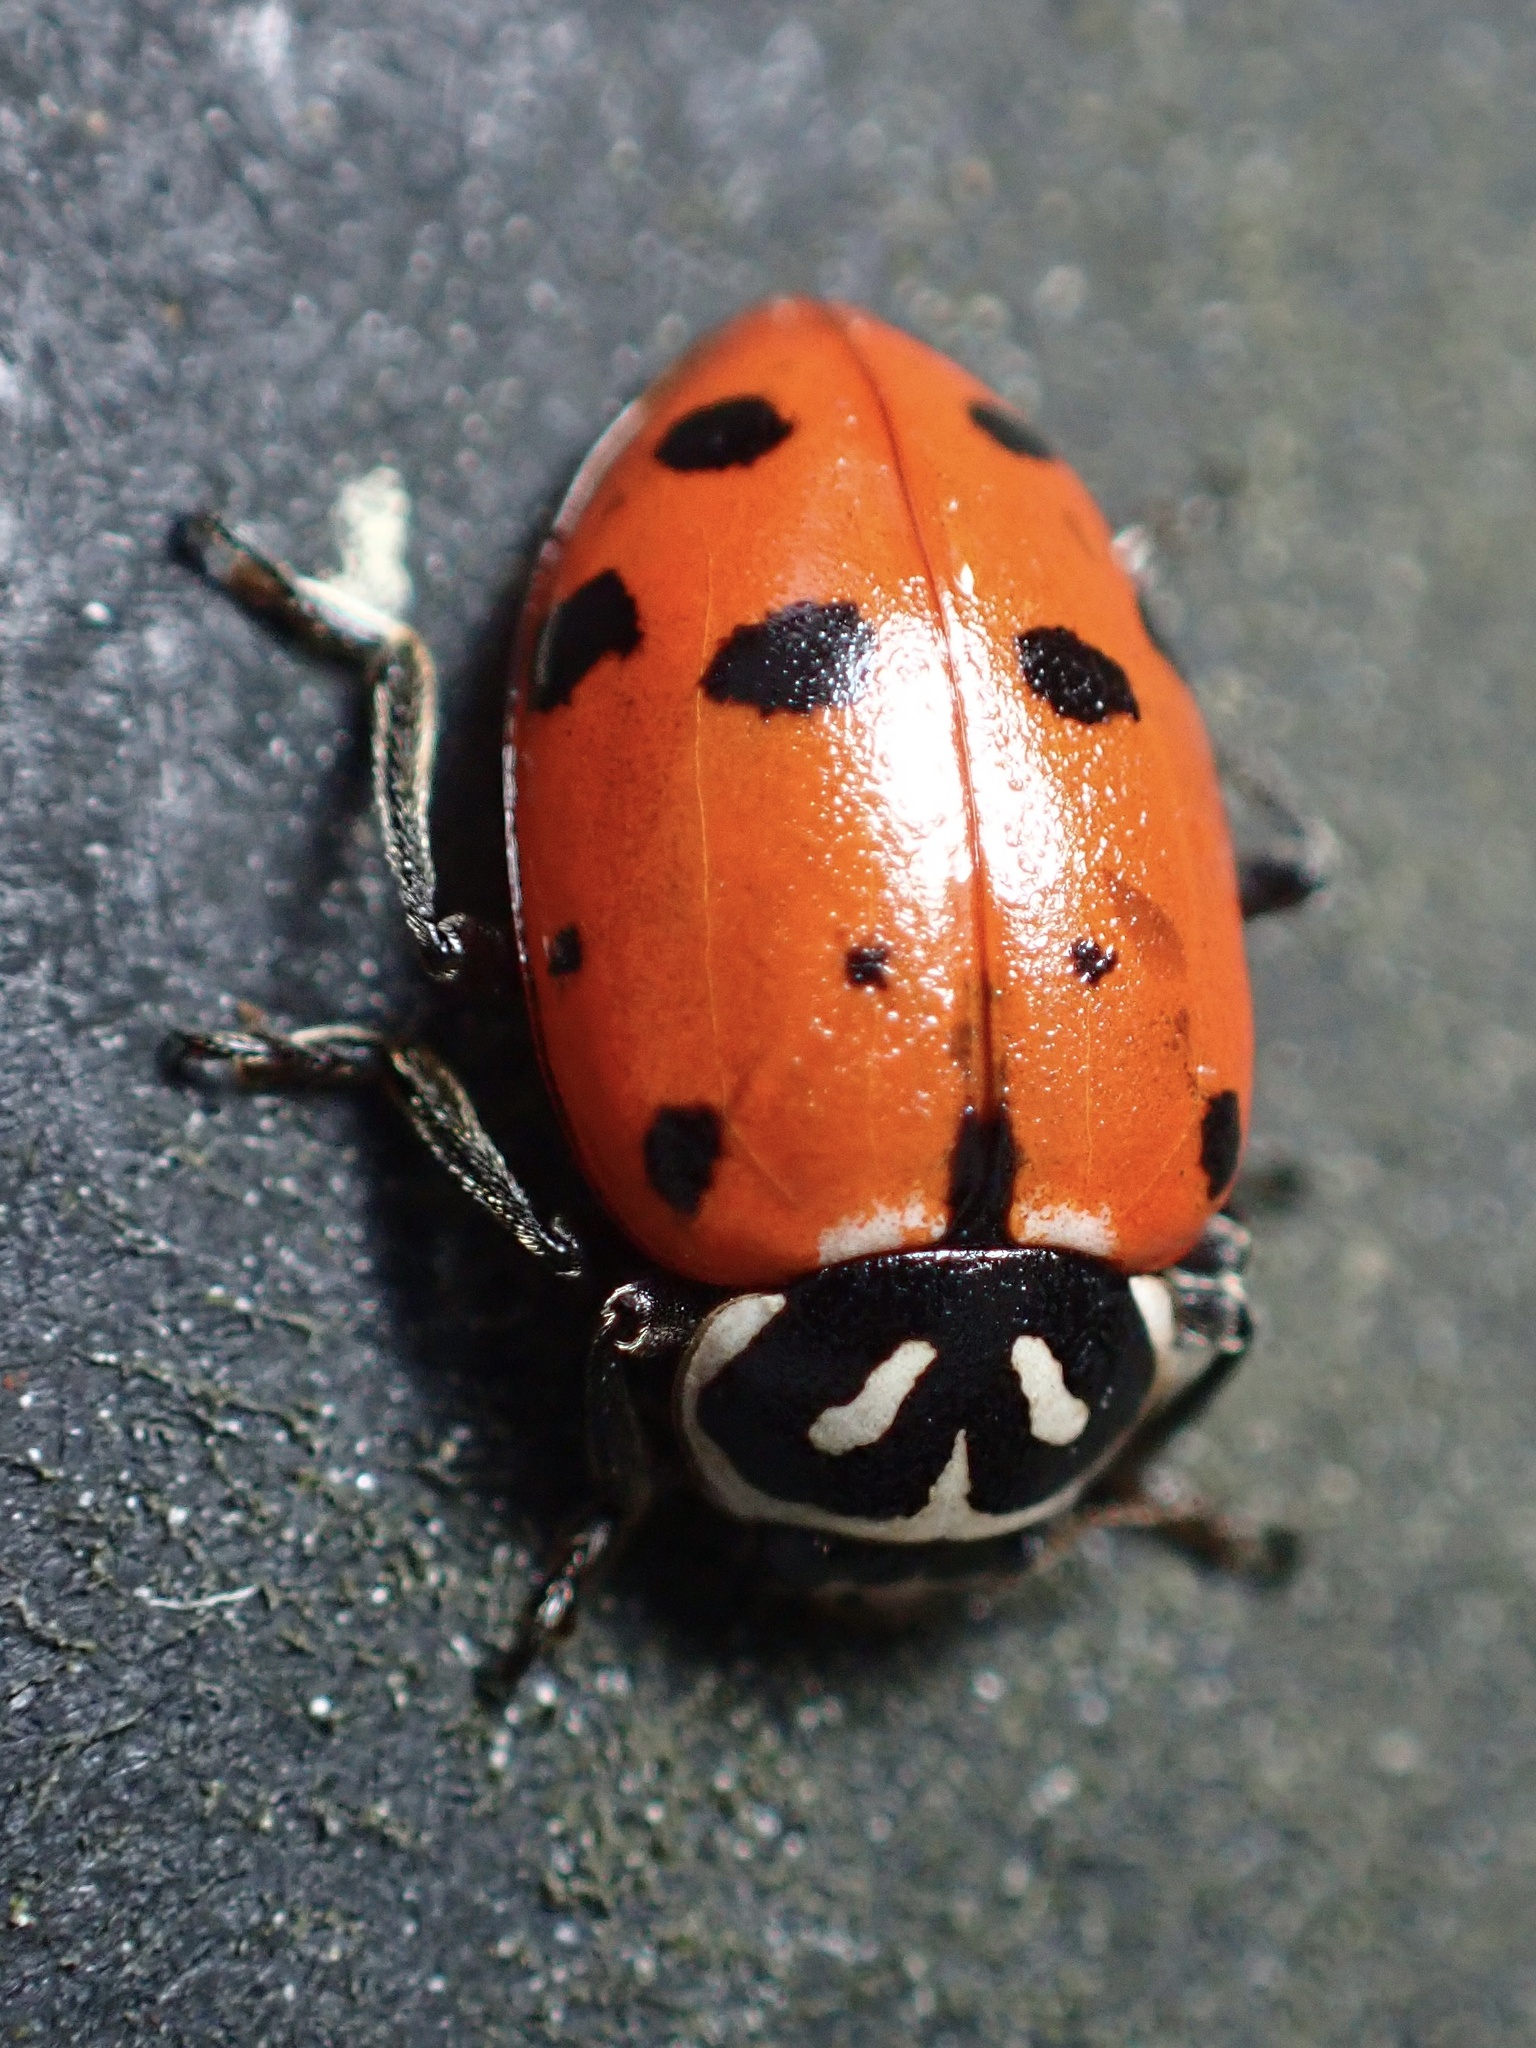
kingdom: Animalia
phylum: Arthropoda
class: Insecta
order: Coleoptera
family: Coccinellidae
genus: Hippodamia
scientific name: Hippodamia convergens
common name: Convergent lady beetle
